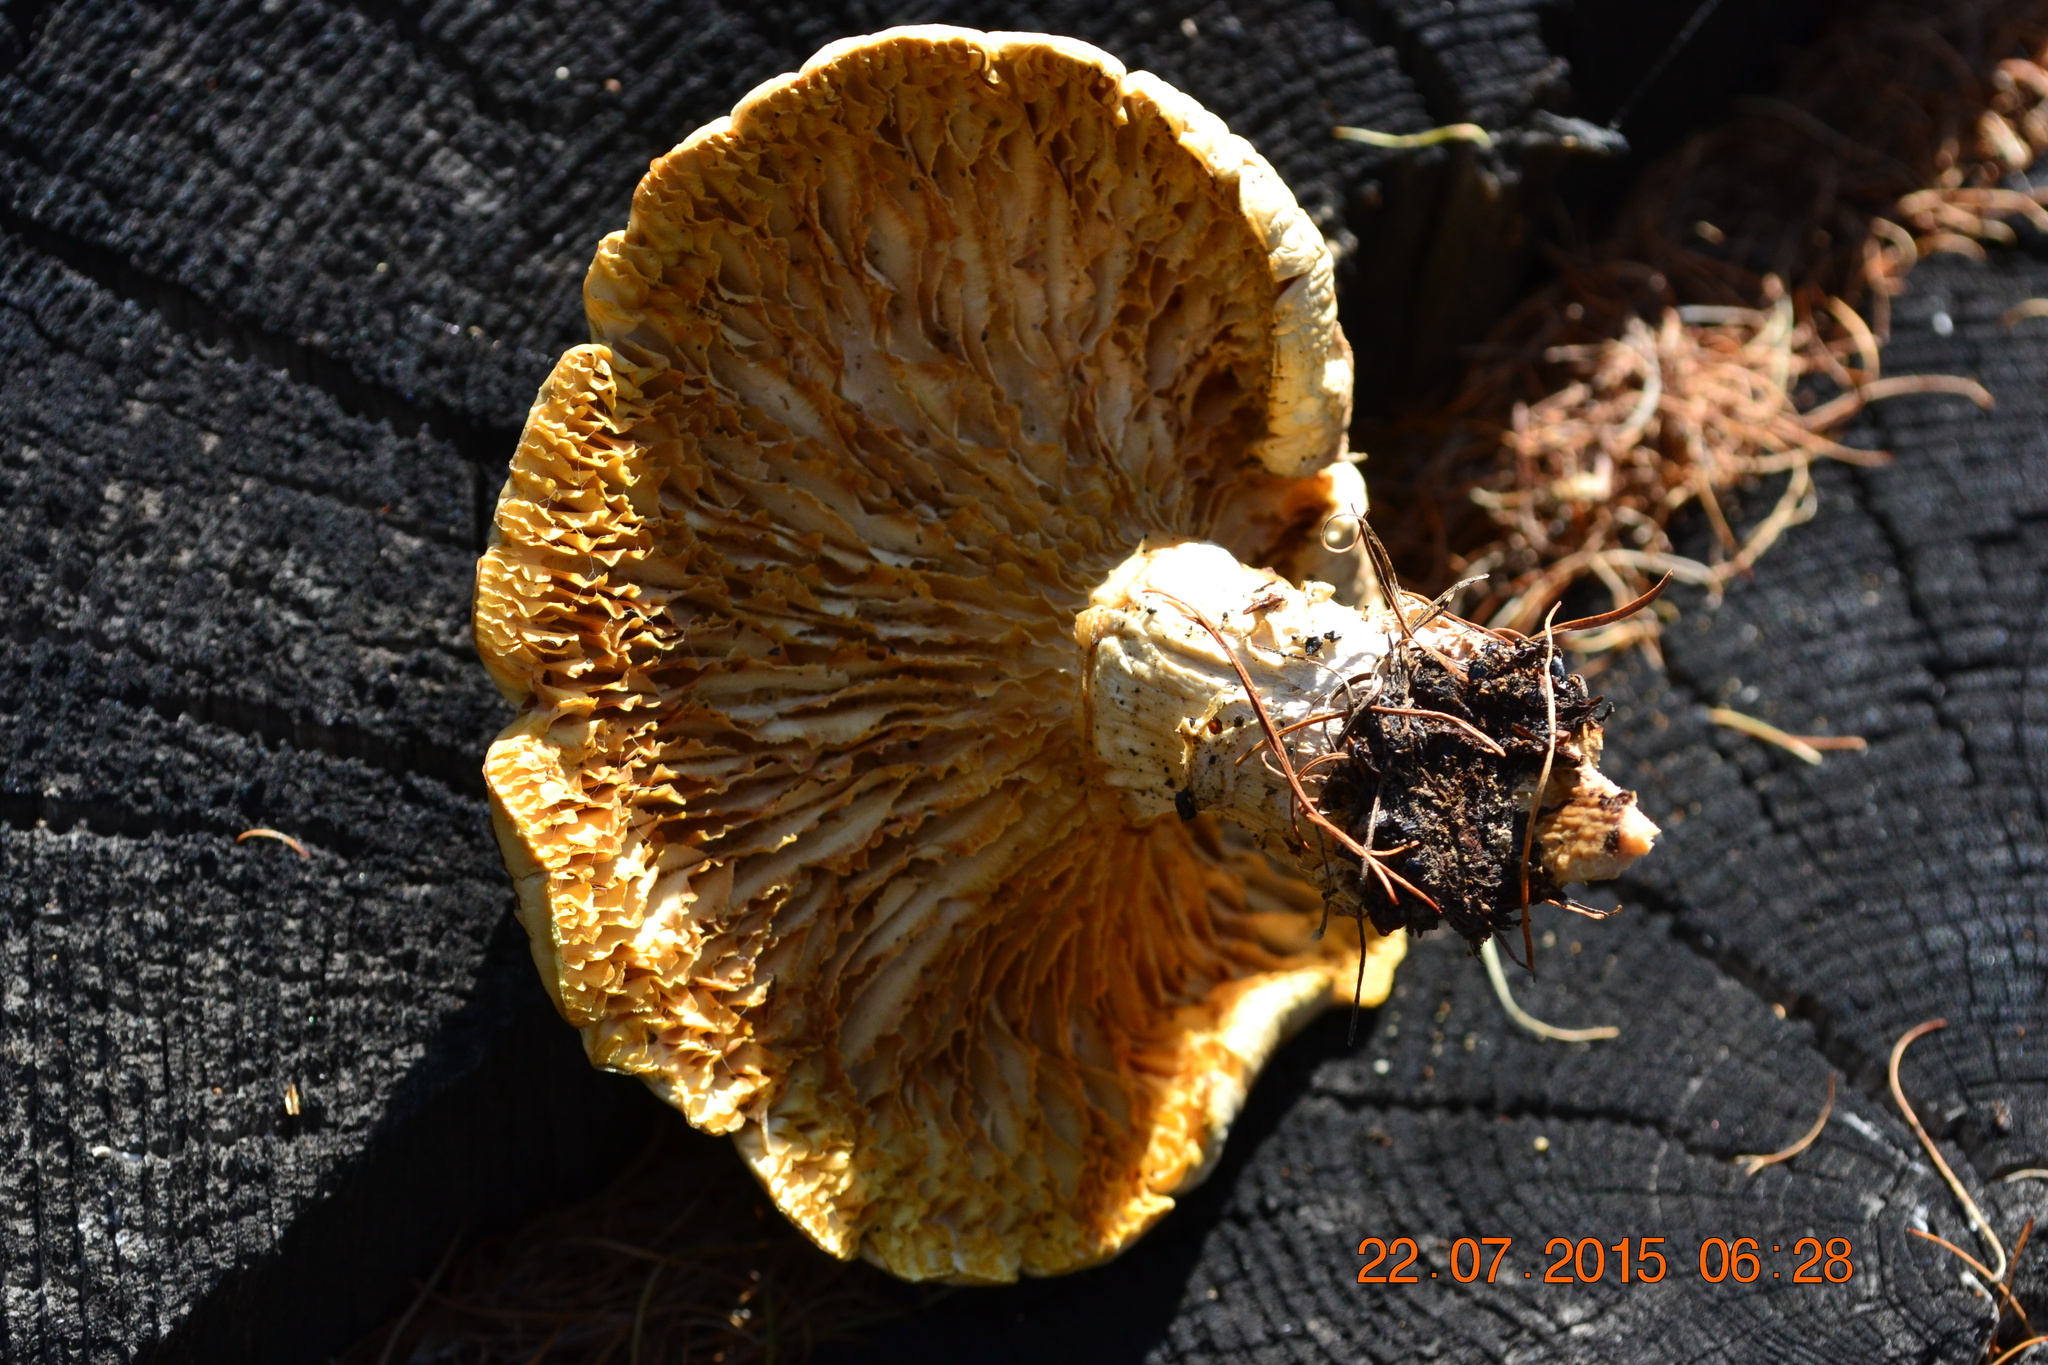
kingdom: Fungi
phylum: Basidiomycota
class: Agaricomycetes
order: Gloeophyllales
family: Gloeophyllaceae
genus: Neolentinus
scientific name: Neolentinus lepideus
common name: Scaly sawgill
